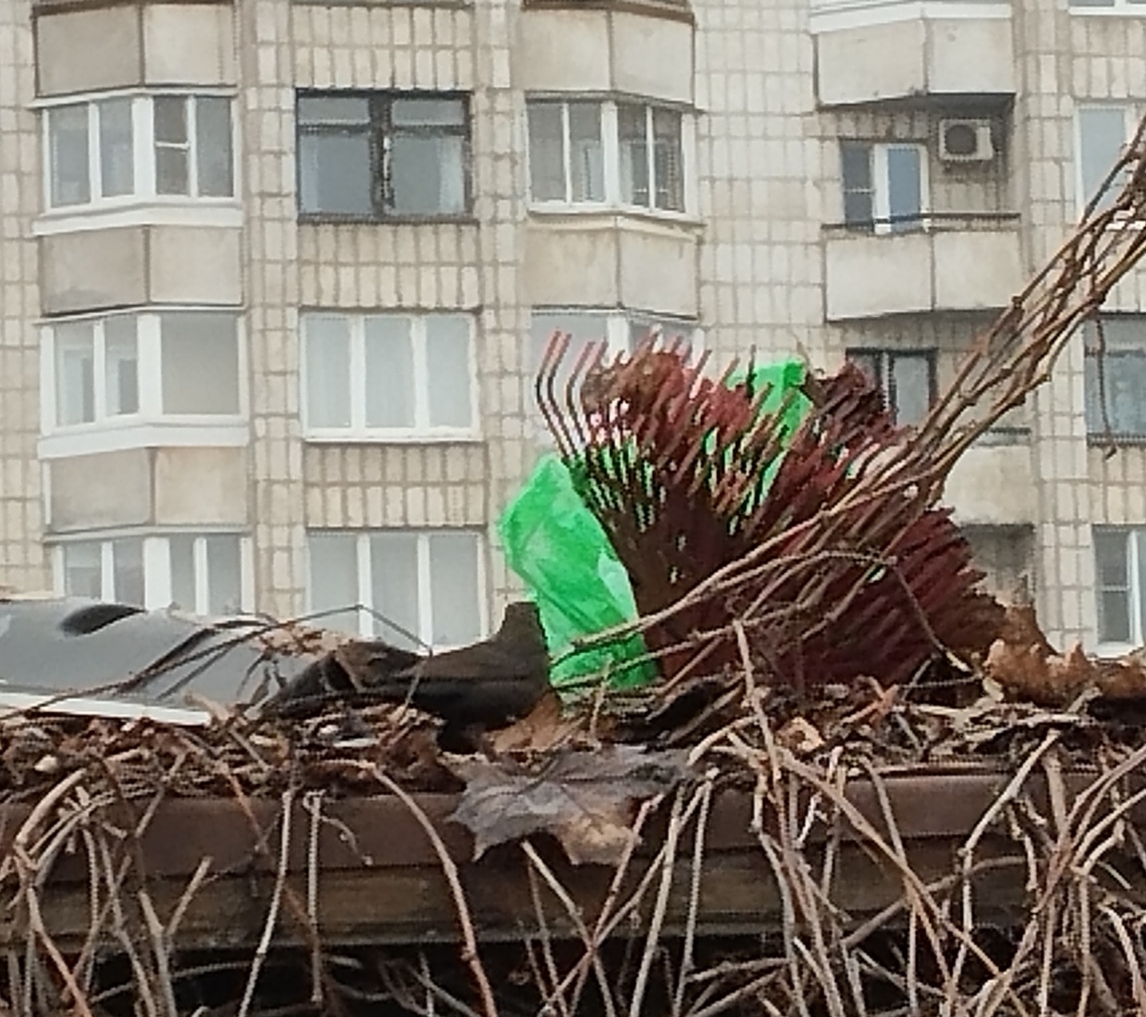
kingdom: Animalia
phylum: Chordata
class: Aves
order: Passeriformes
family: Turdidae
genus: Turdus
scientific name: Turdus merula
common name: Common blackbird
